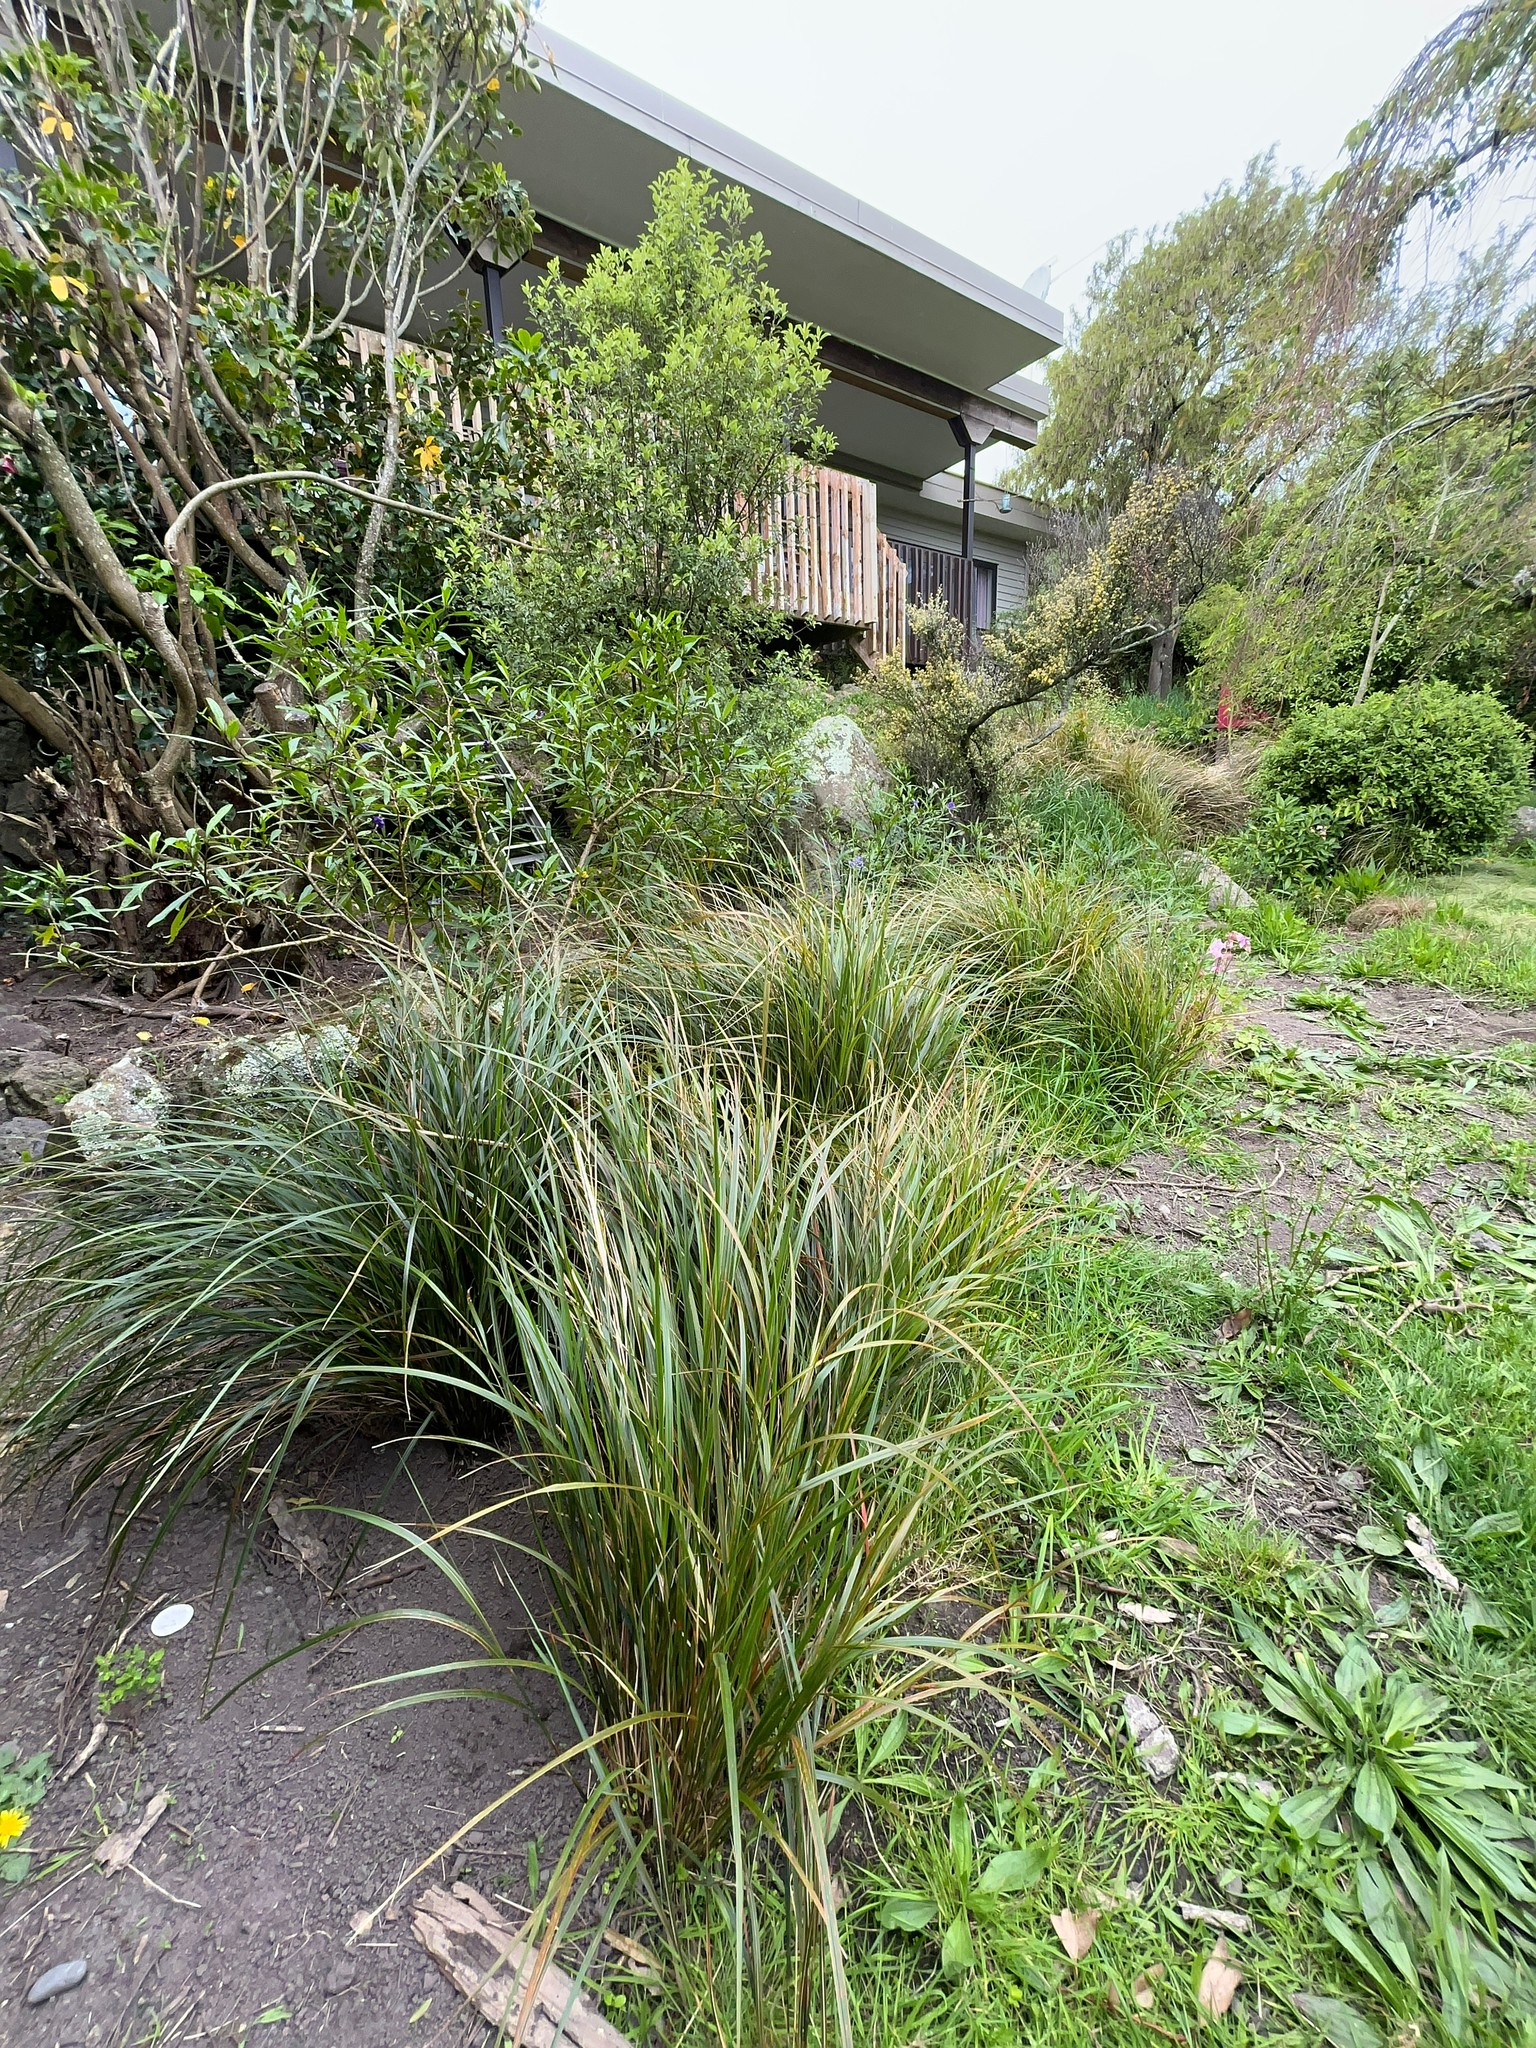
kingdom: Plantae
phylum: Tracheophyta
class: Liliopsida
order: Poales
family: Poaceae
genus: Anemanthele
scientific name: Anemanthele lessoniana
